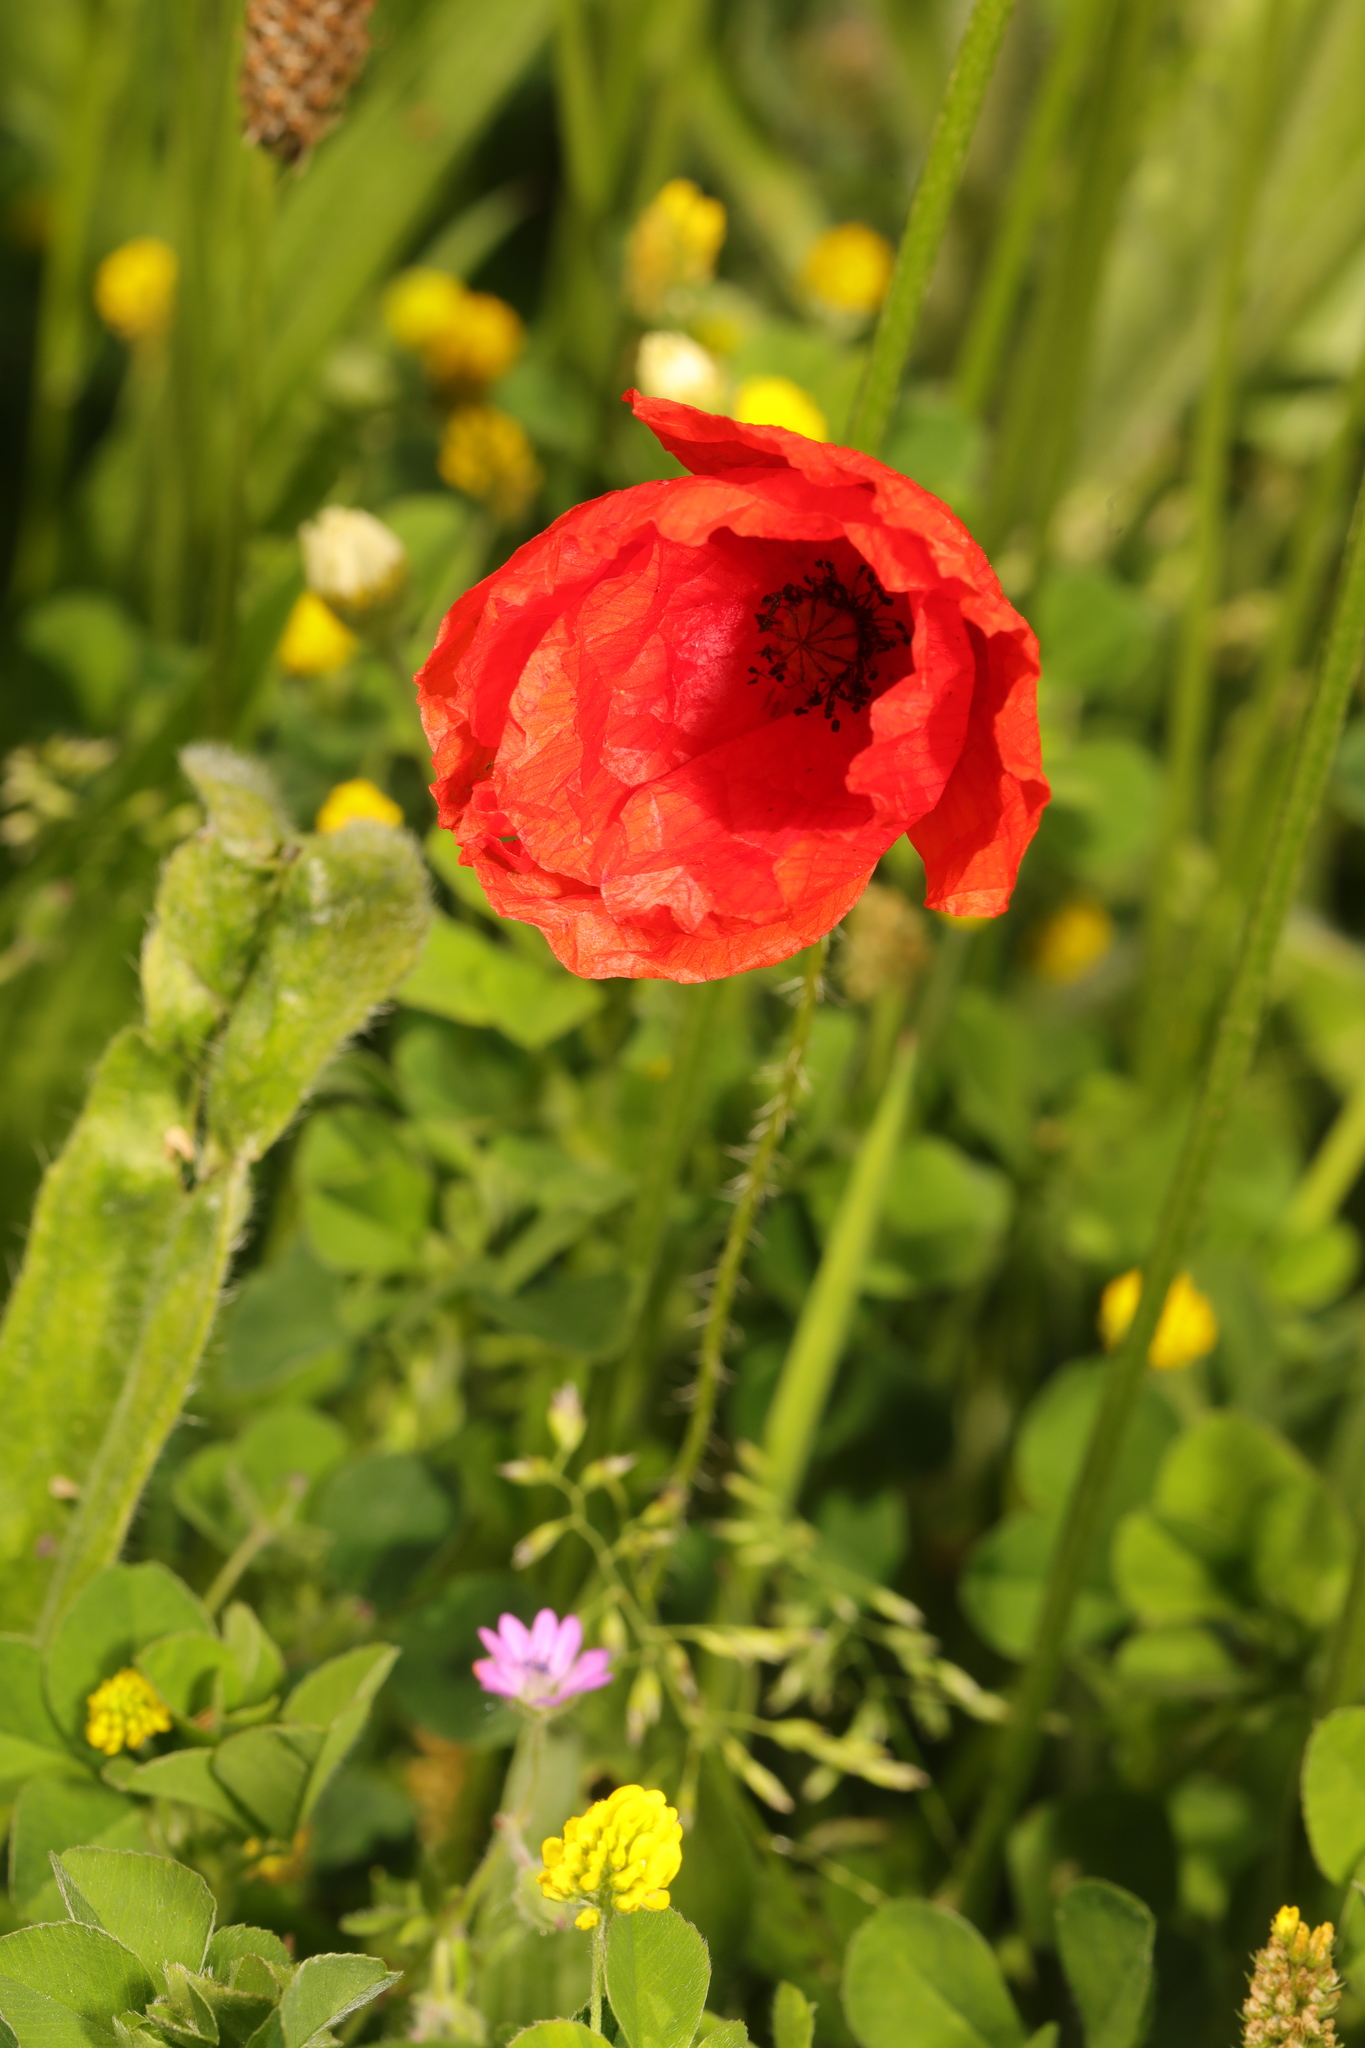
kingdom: Plantae
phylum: Tracheophyta
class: Magnoliopsida
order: Ranunculales
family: Papaveraceae
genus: Papaver
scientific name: Papaver rhoeas
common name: Corn poppy
